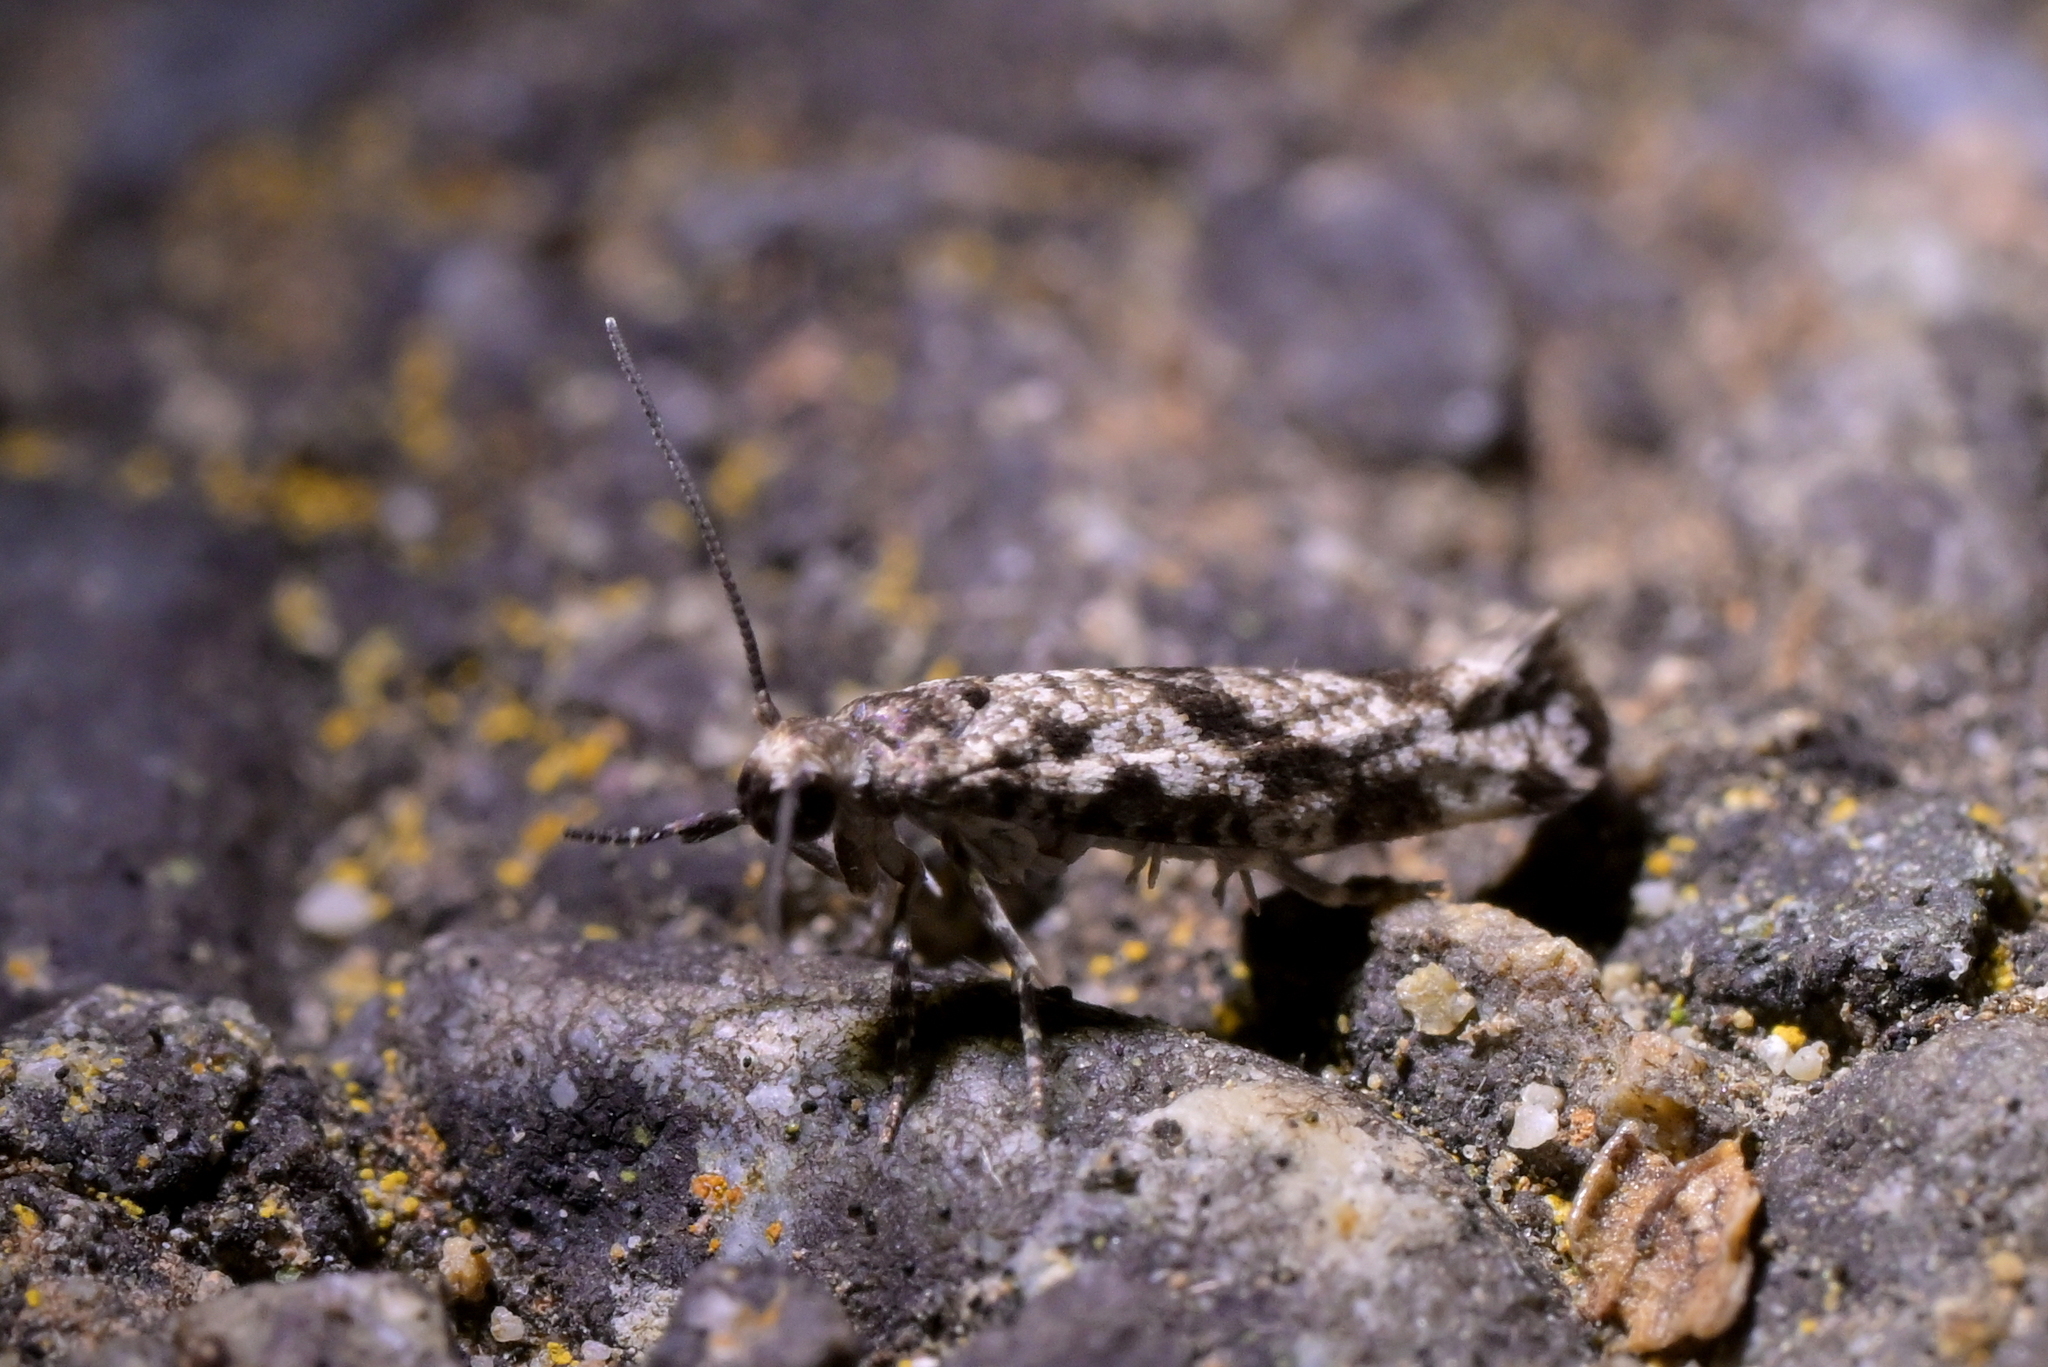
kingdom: Animalia
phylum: Arthropoda
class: Insecta
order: Lepidoptera
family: Praydidae
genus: Prays
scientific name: Prays nephelomima
